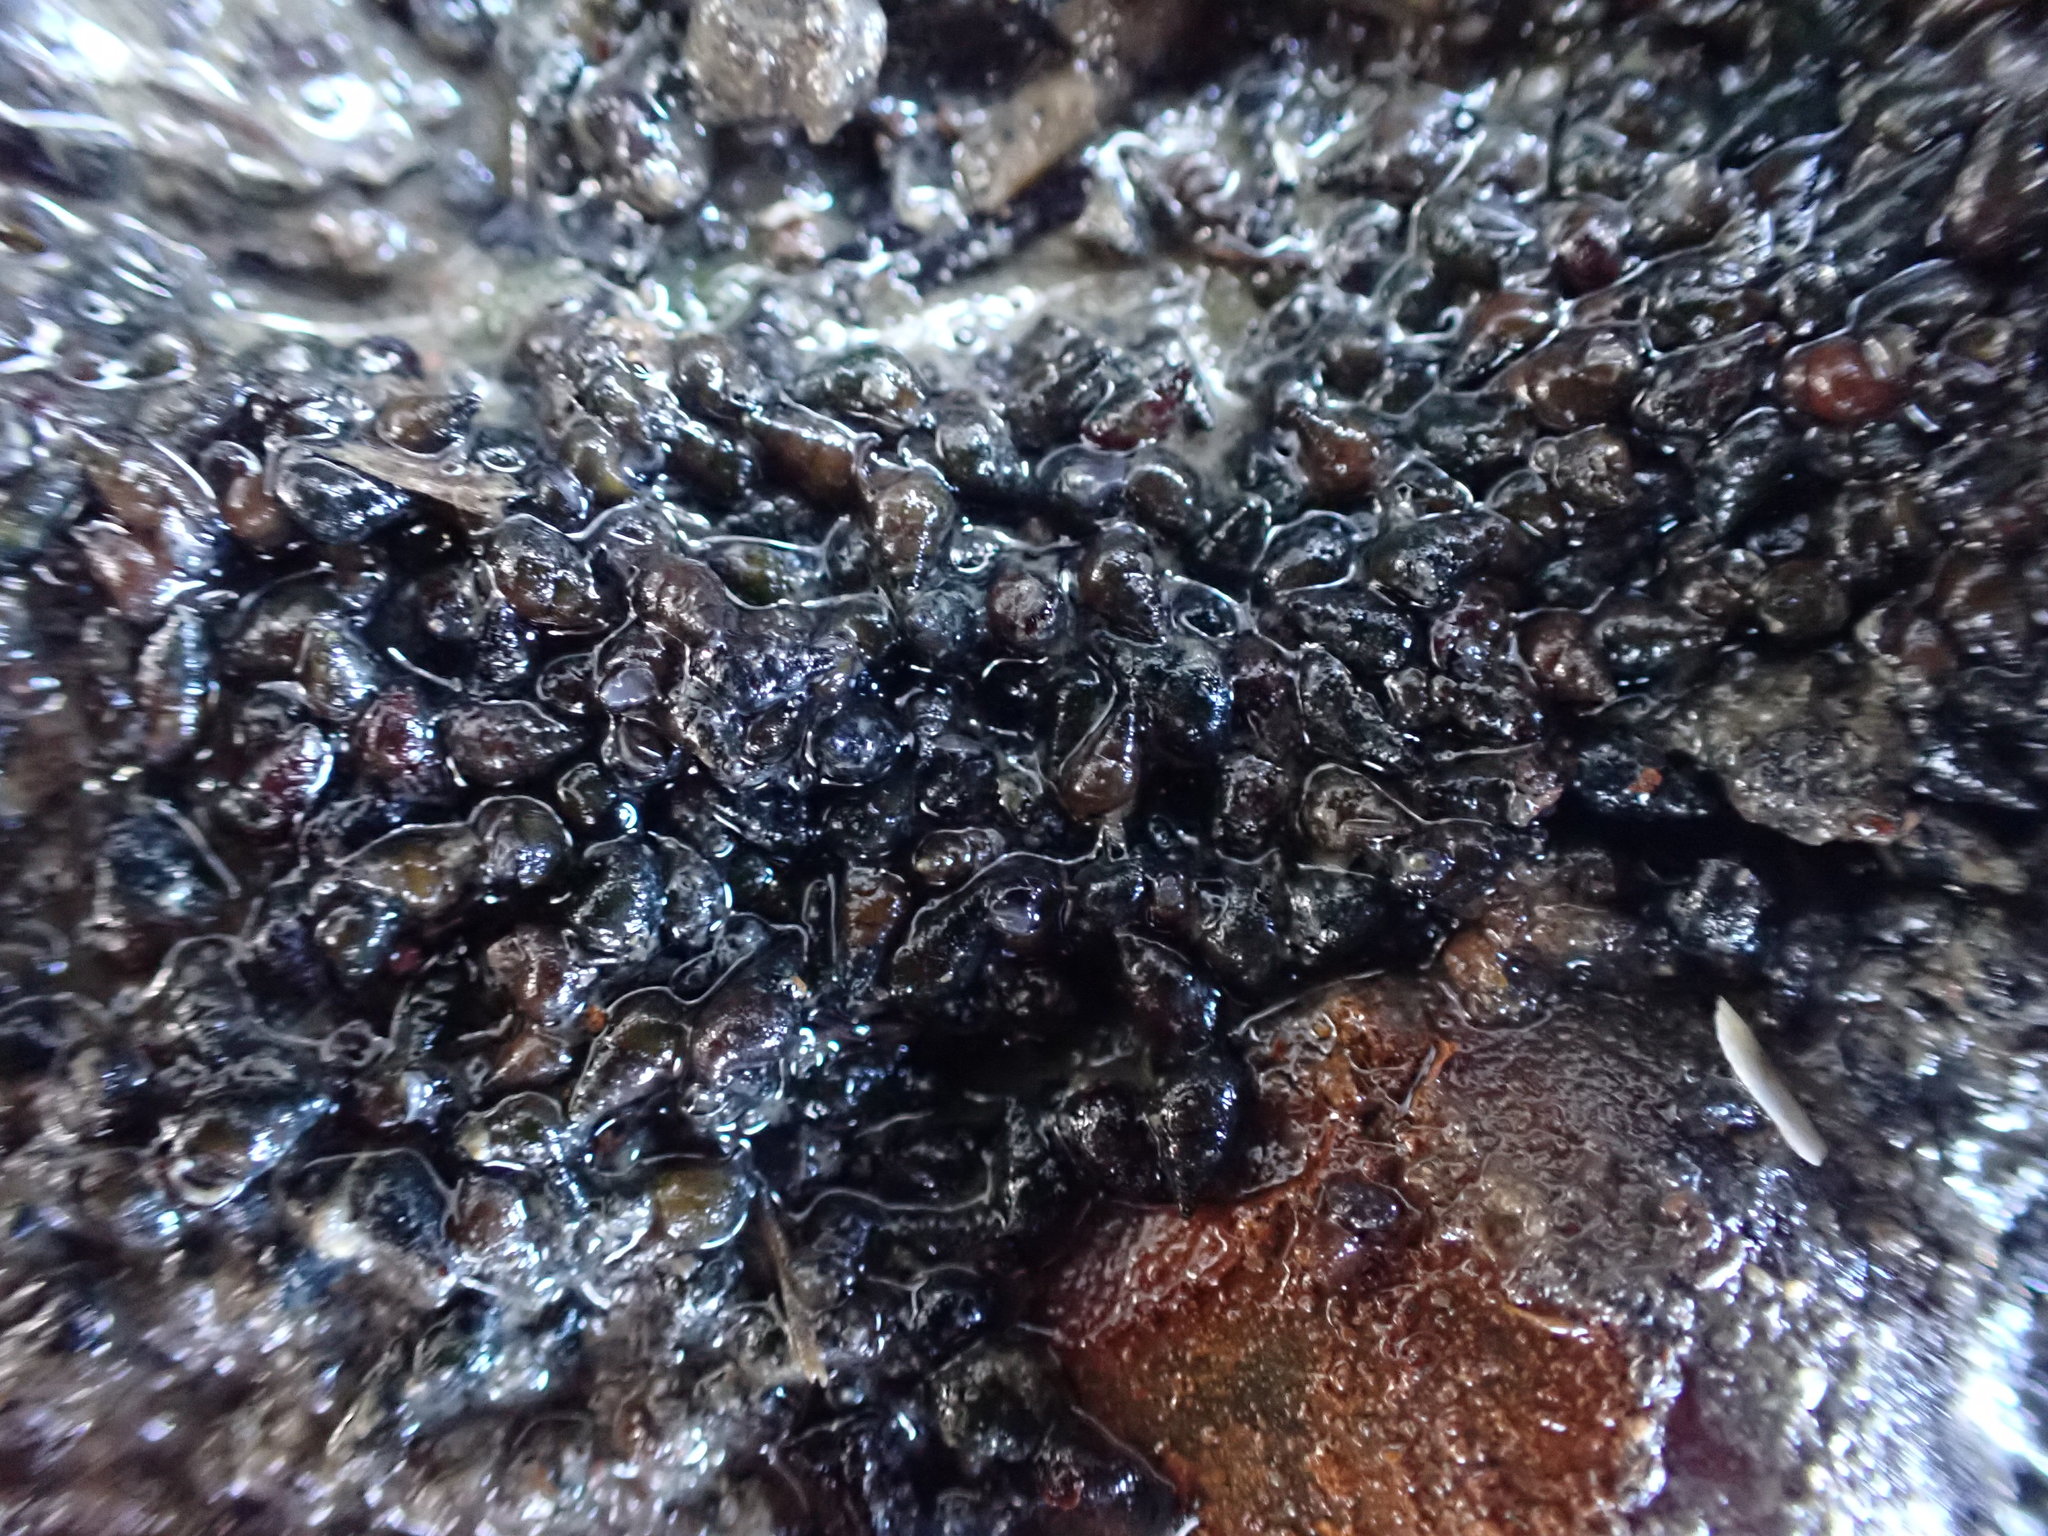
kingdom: Animalia
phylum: Mollusca
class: Gastropoda
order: Littorinimorpha
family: Tateidae
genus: Potamopyrgus
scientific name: Potamopyrgus estuarinus
